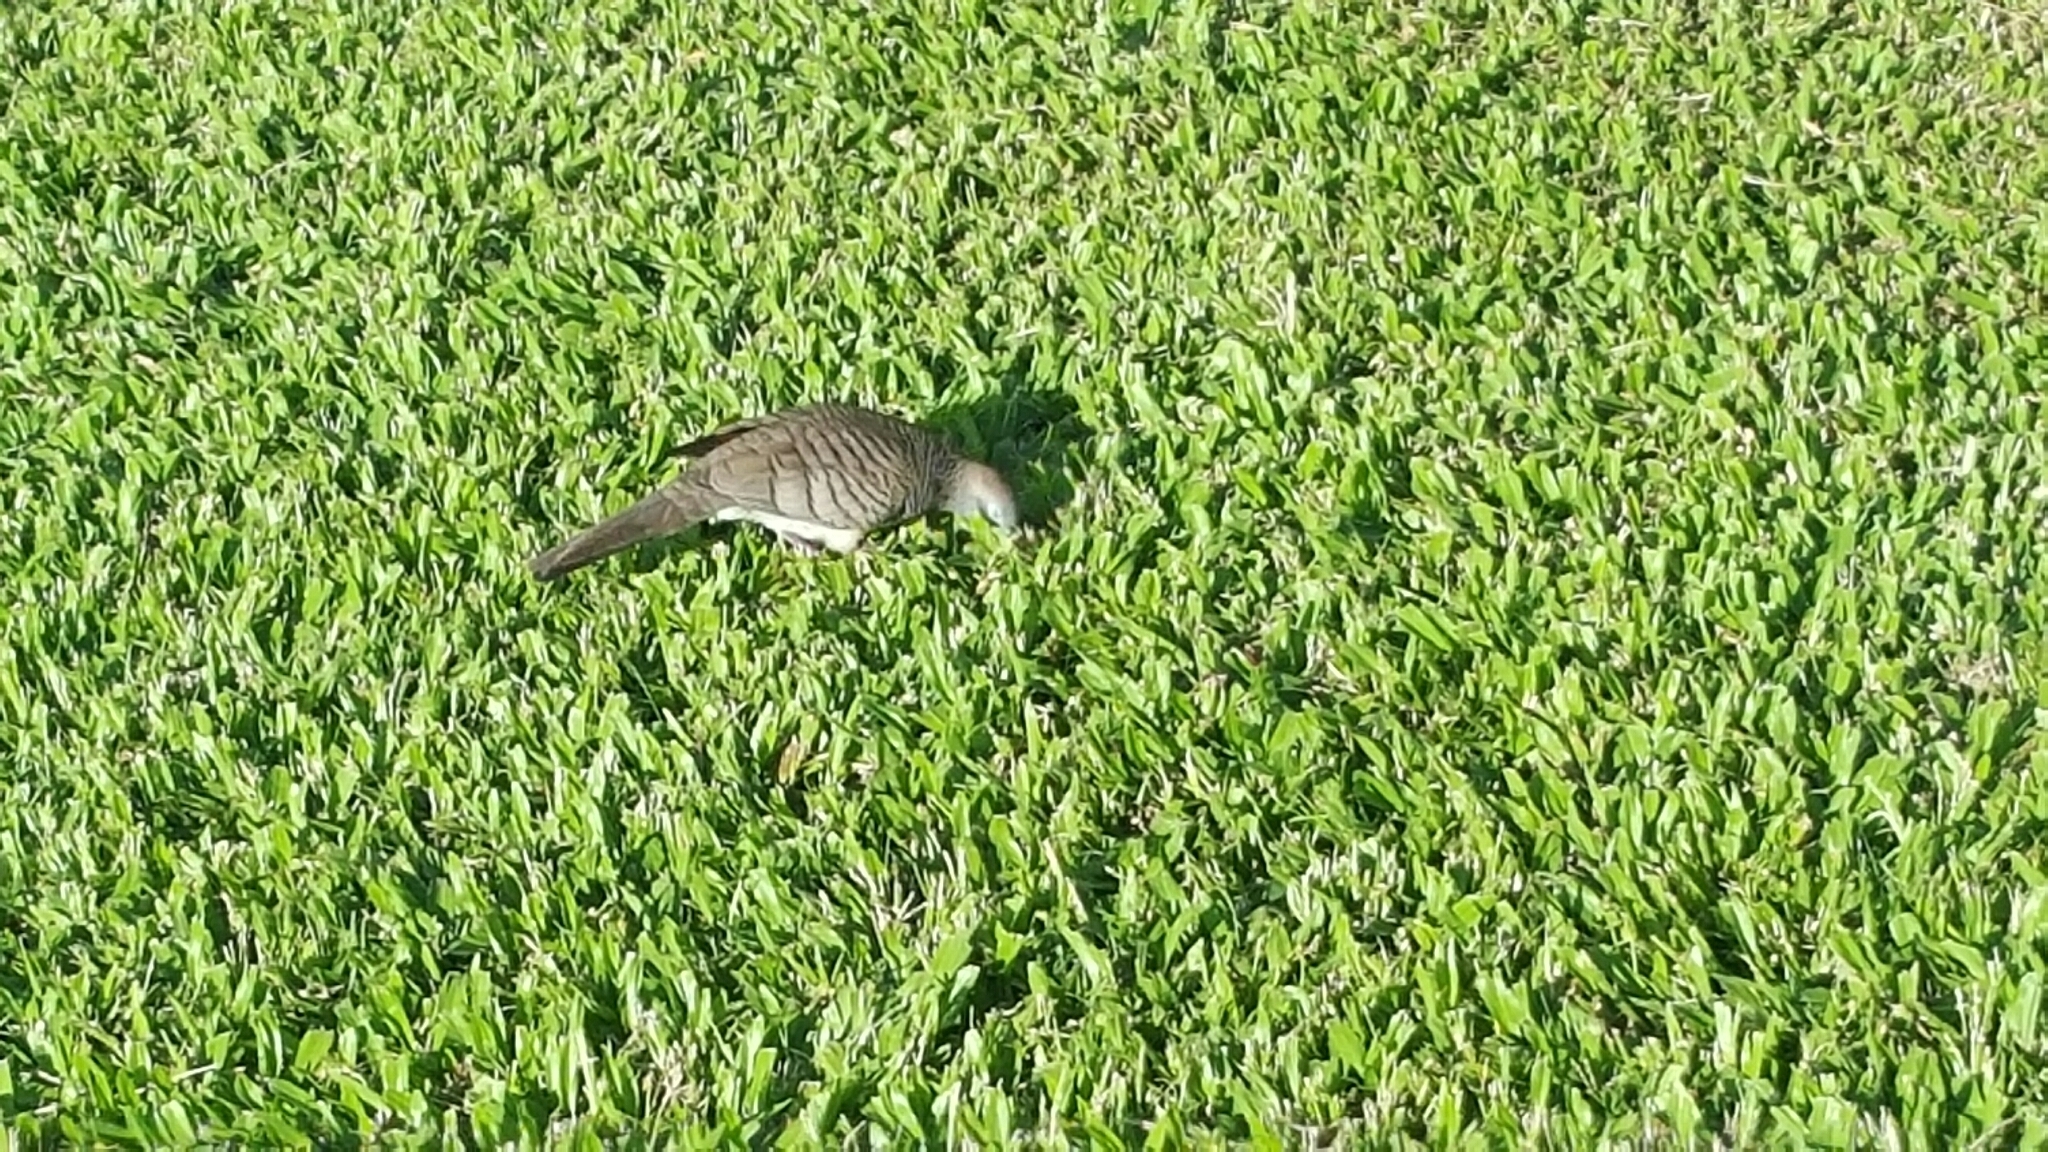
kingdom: Animalia
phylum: Chordata
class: Aves
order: Columbiformes
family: Columbidae
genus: Geopelia
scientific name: Geopelia striata
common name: Zebra dove
